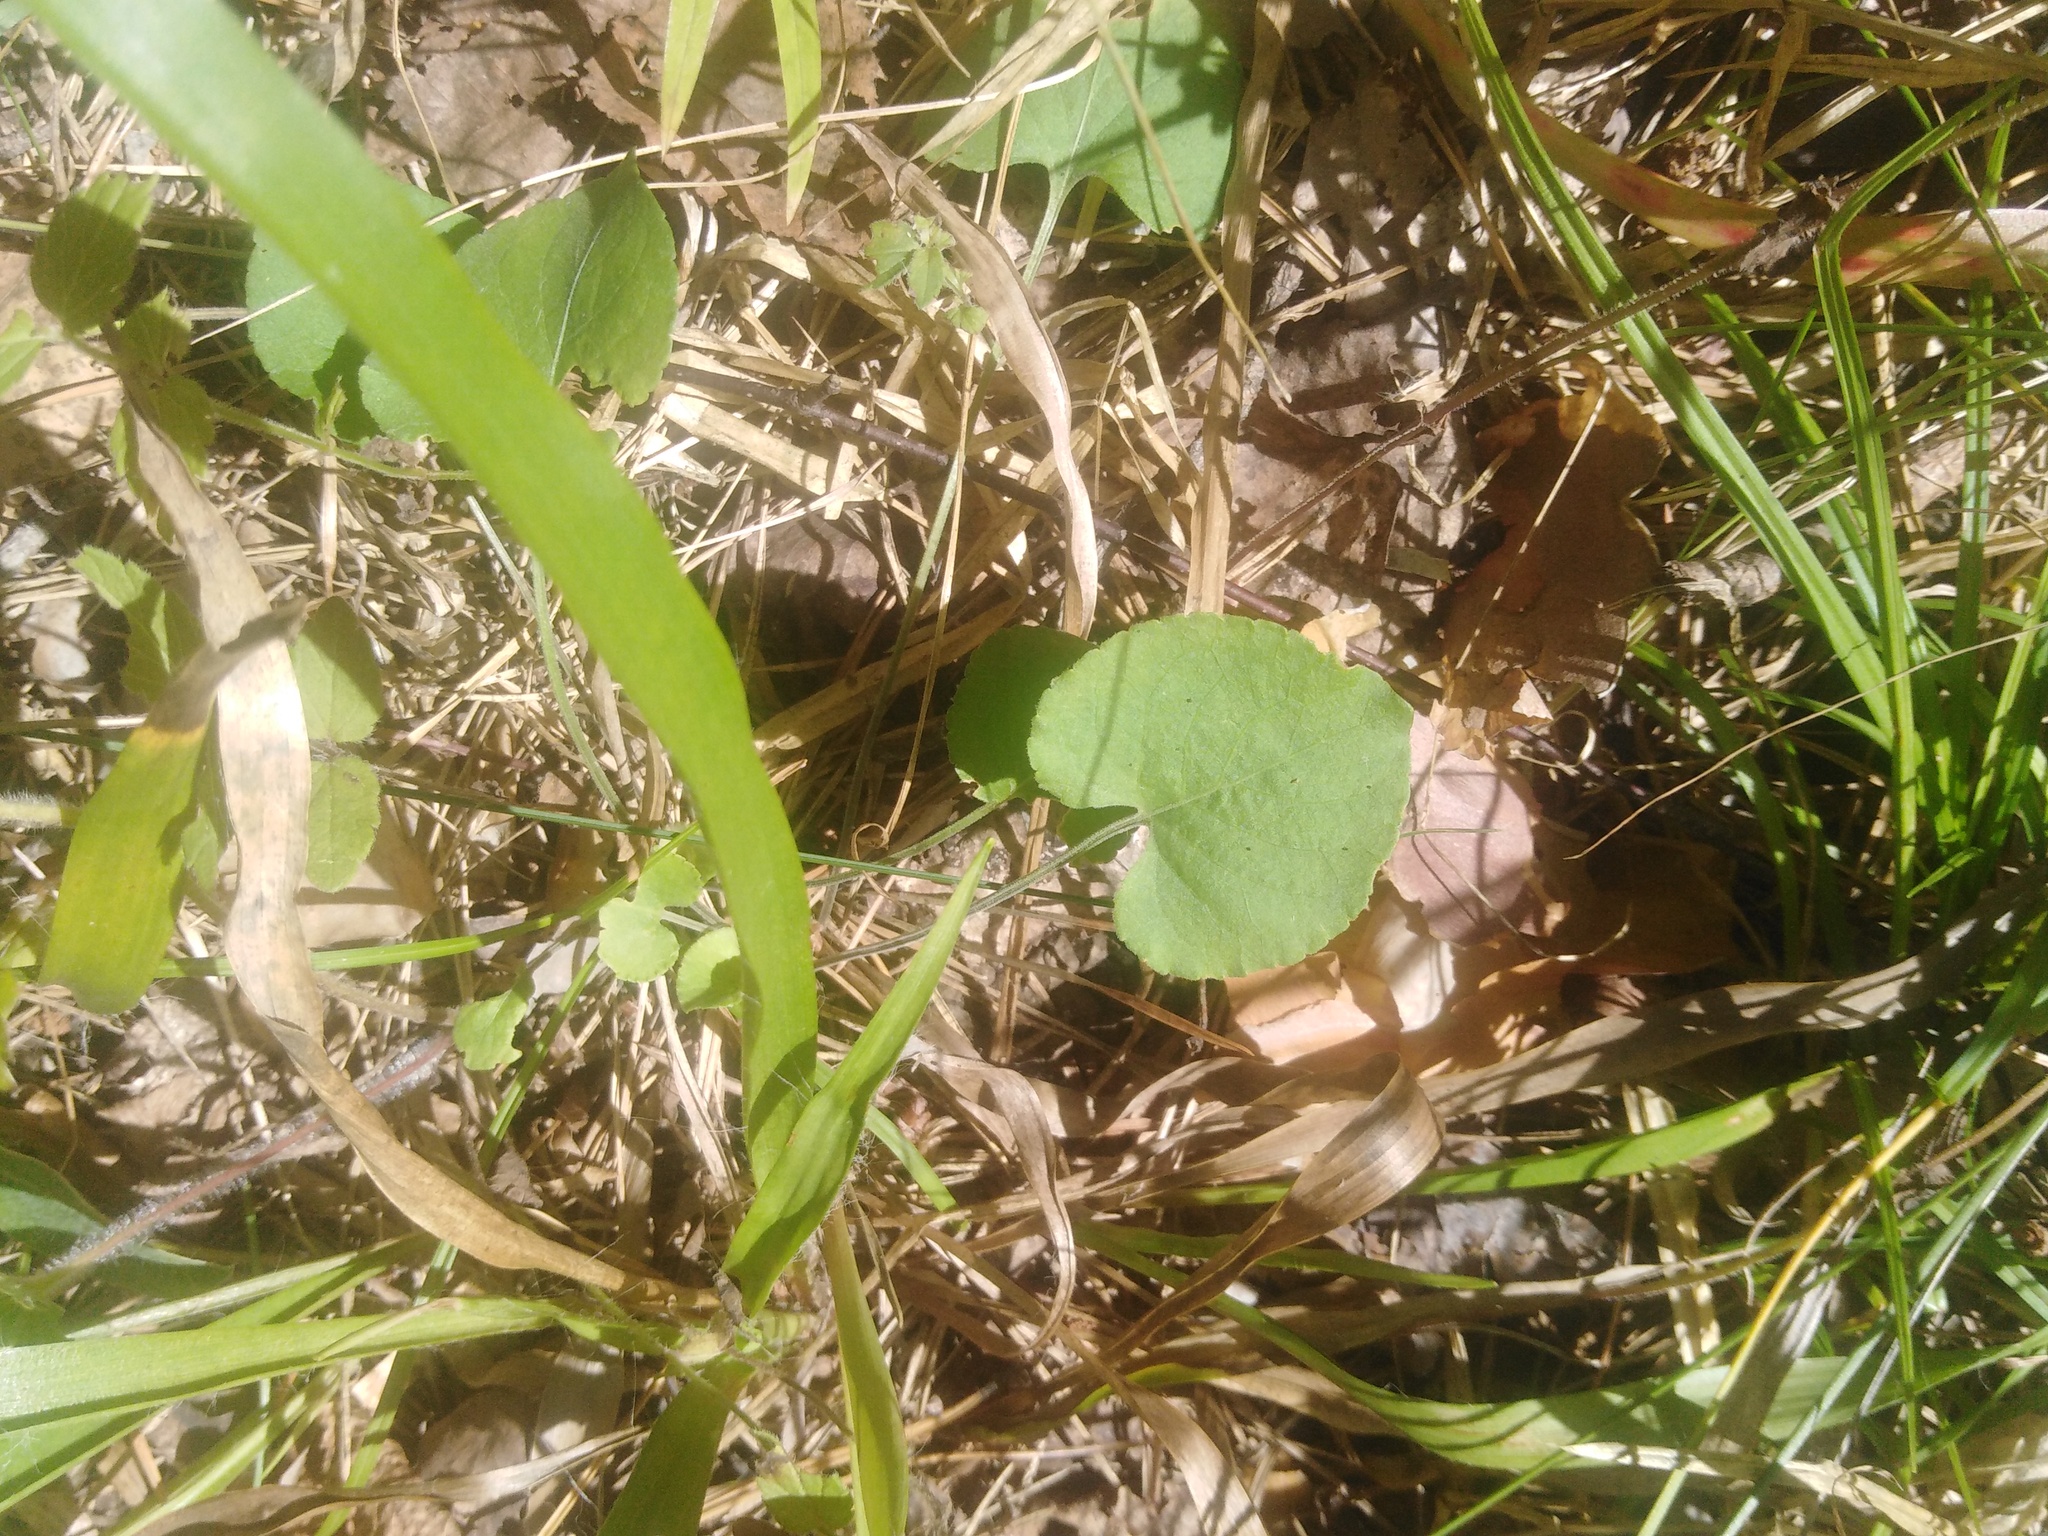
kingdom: Plantae
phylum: Tracheophyta
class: Magnoliopsida
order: Malpighiales
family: Violaceae
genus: Viola
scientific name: Viola rupestris
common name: Teesdale violet
